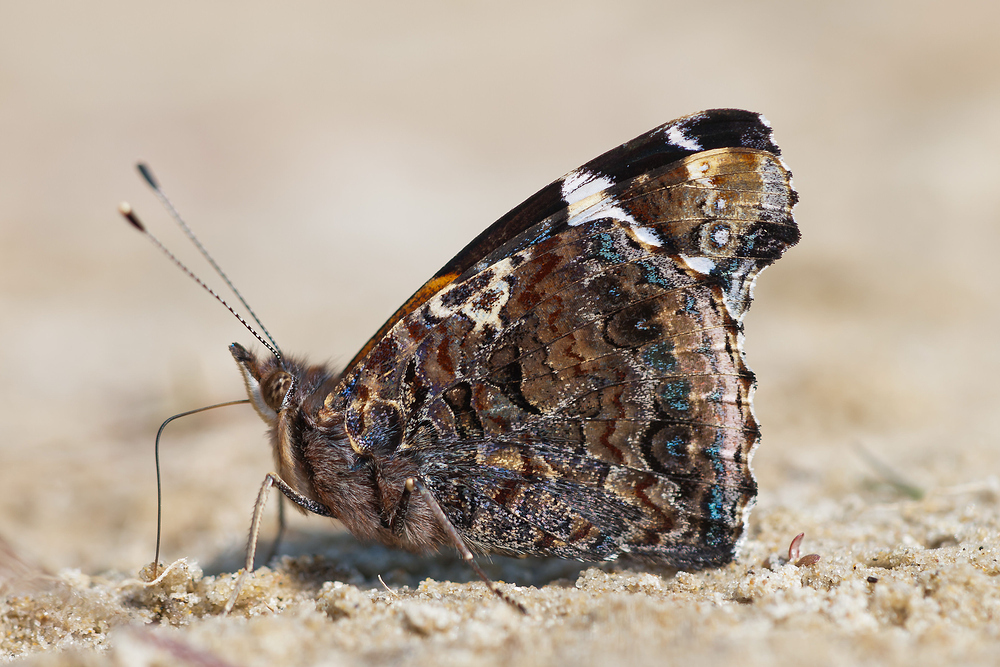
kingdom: Animalia
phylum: Arthropoda
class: Insecta
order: Lepidoptera
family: Nymphalidae
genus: Vanessa
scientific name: Vanessa atalanta
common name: Red admiral
